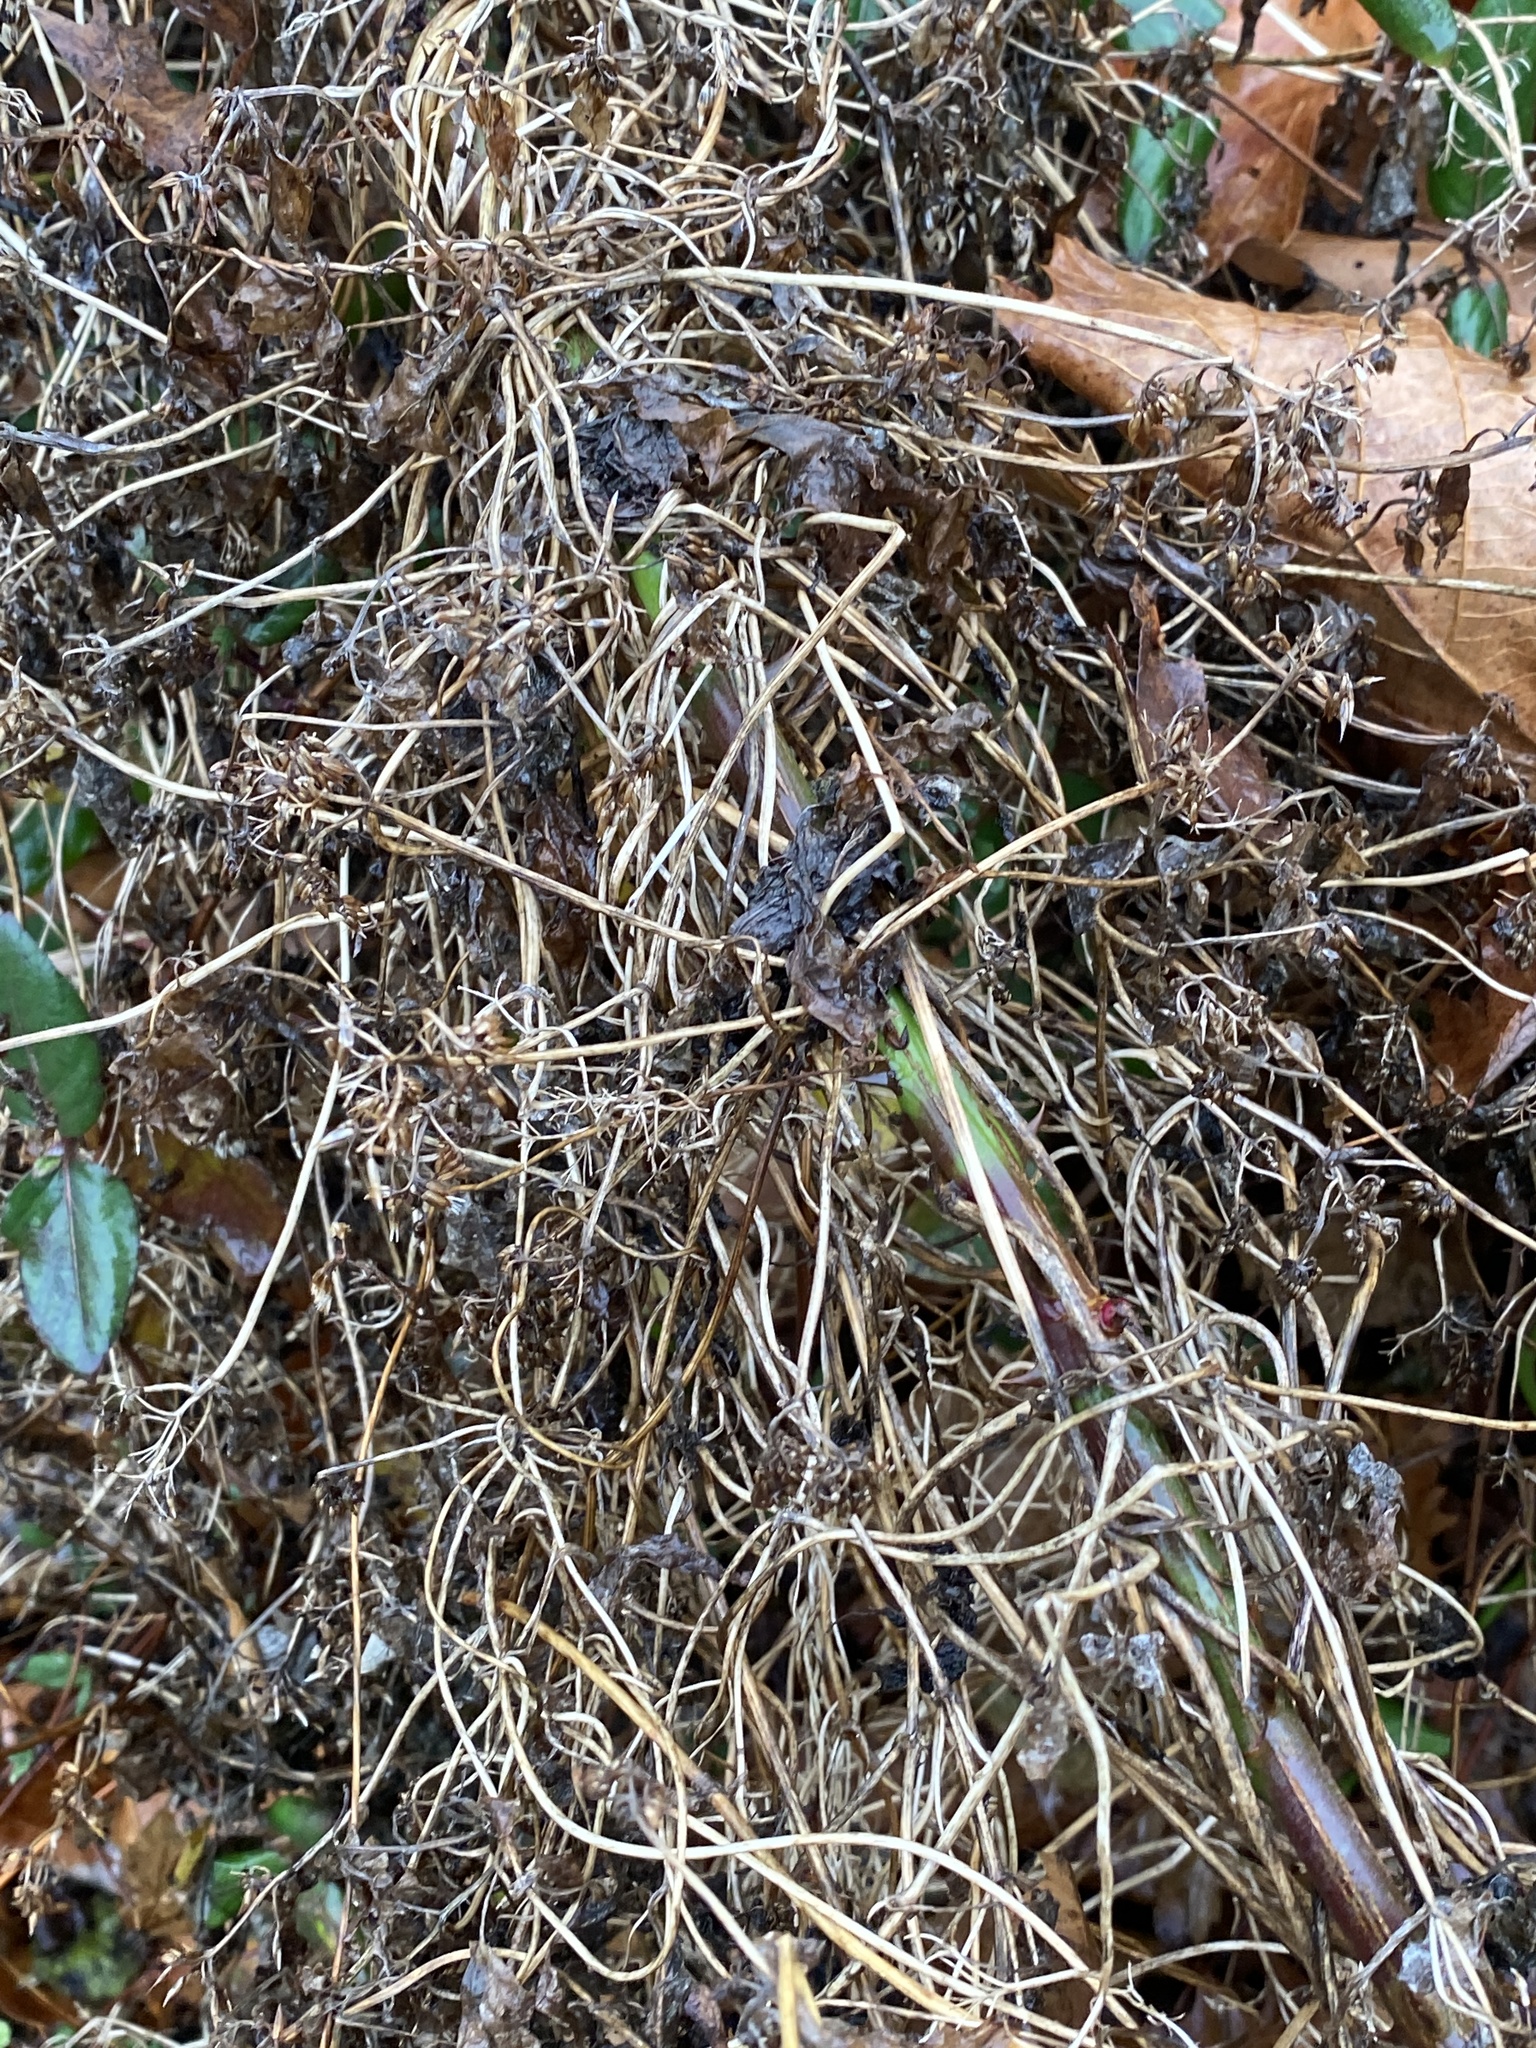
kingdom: Plantae
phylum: Tracheophyta
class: Magnoliopsida
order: Asterales
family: Asteraceae
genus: Mikania
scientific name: Mikania scandens
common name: Climbing hempvine
